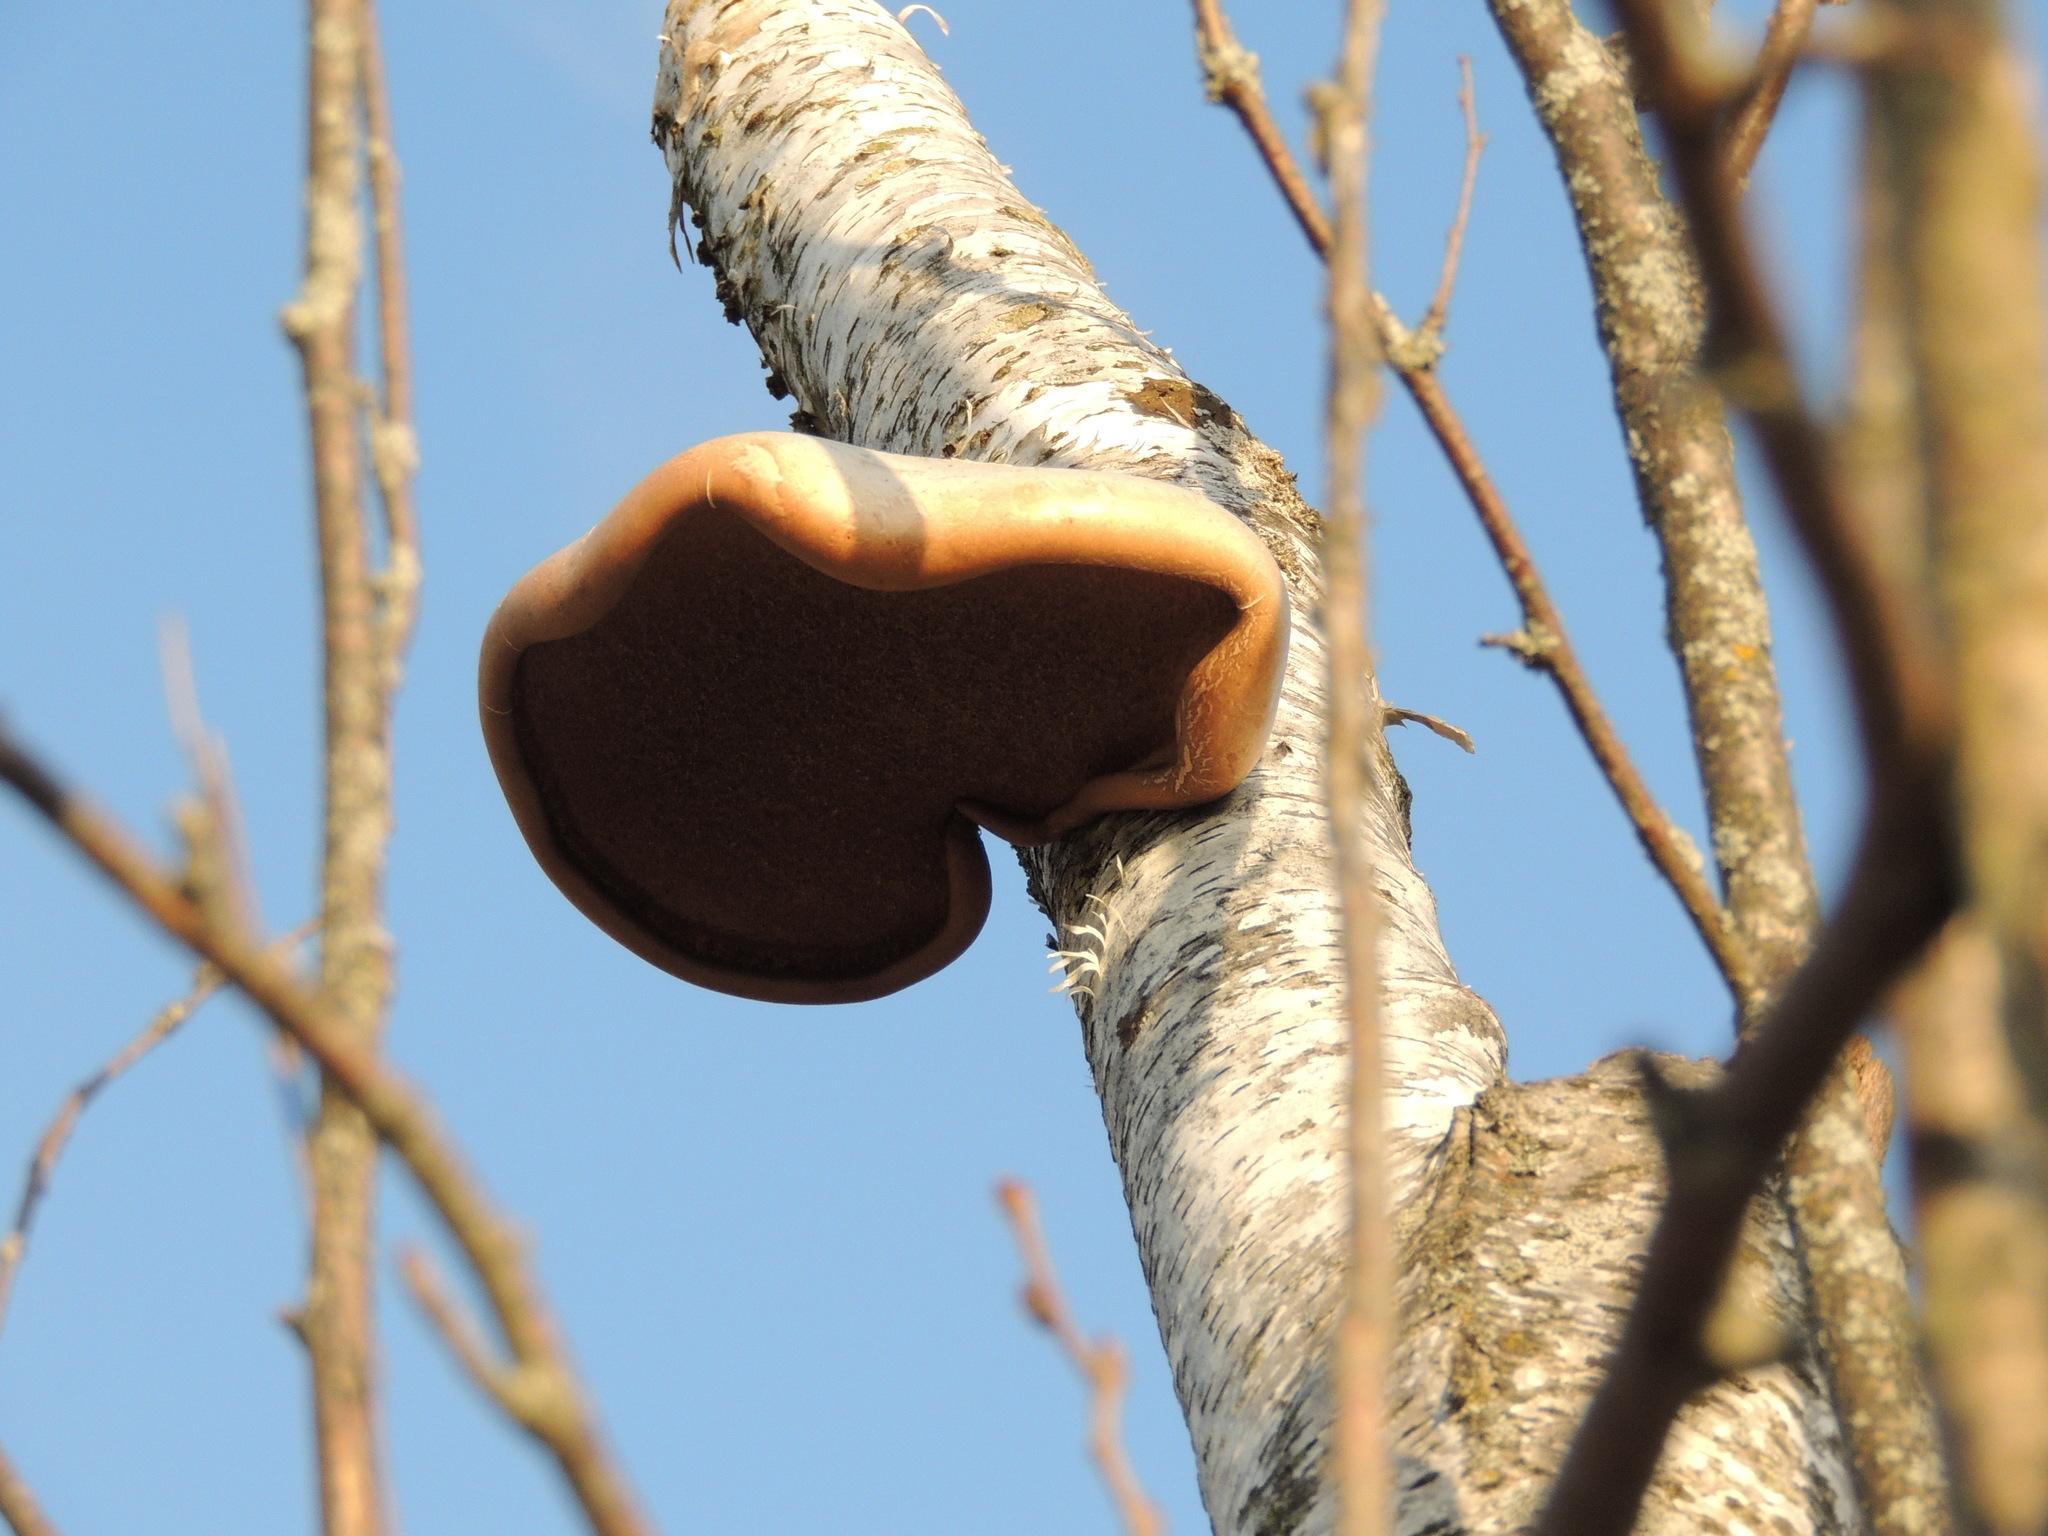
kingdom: Fungi
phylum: Basidiomycota
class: Agaricomycetes
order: Polyporales
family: Fomitopsidaceae
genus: Fomitopsis
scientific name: Fomitopsis betulina
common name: Birch polypore
